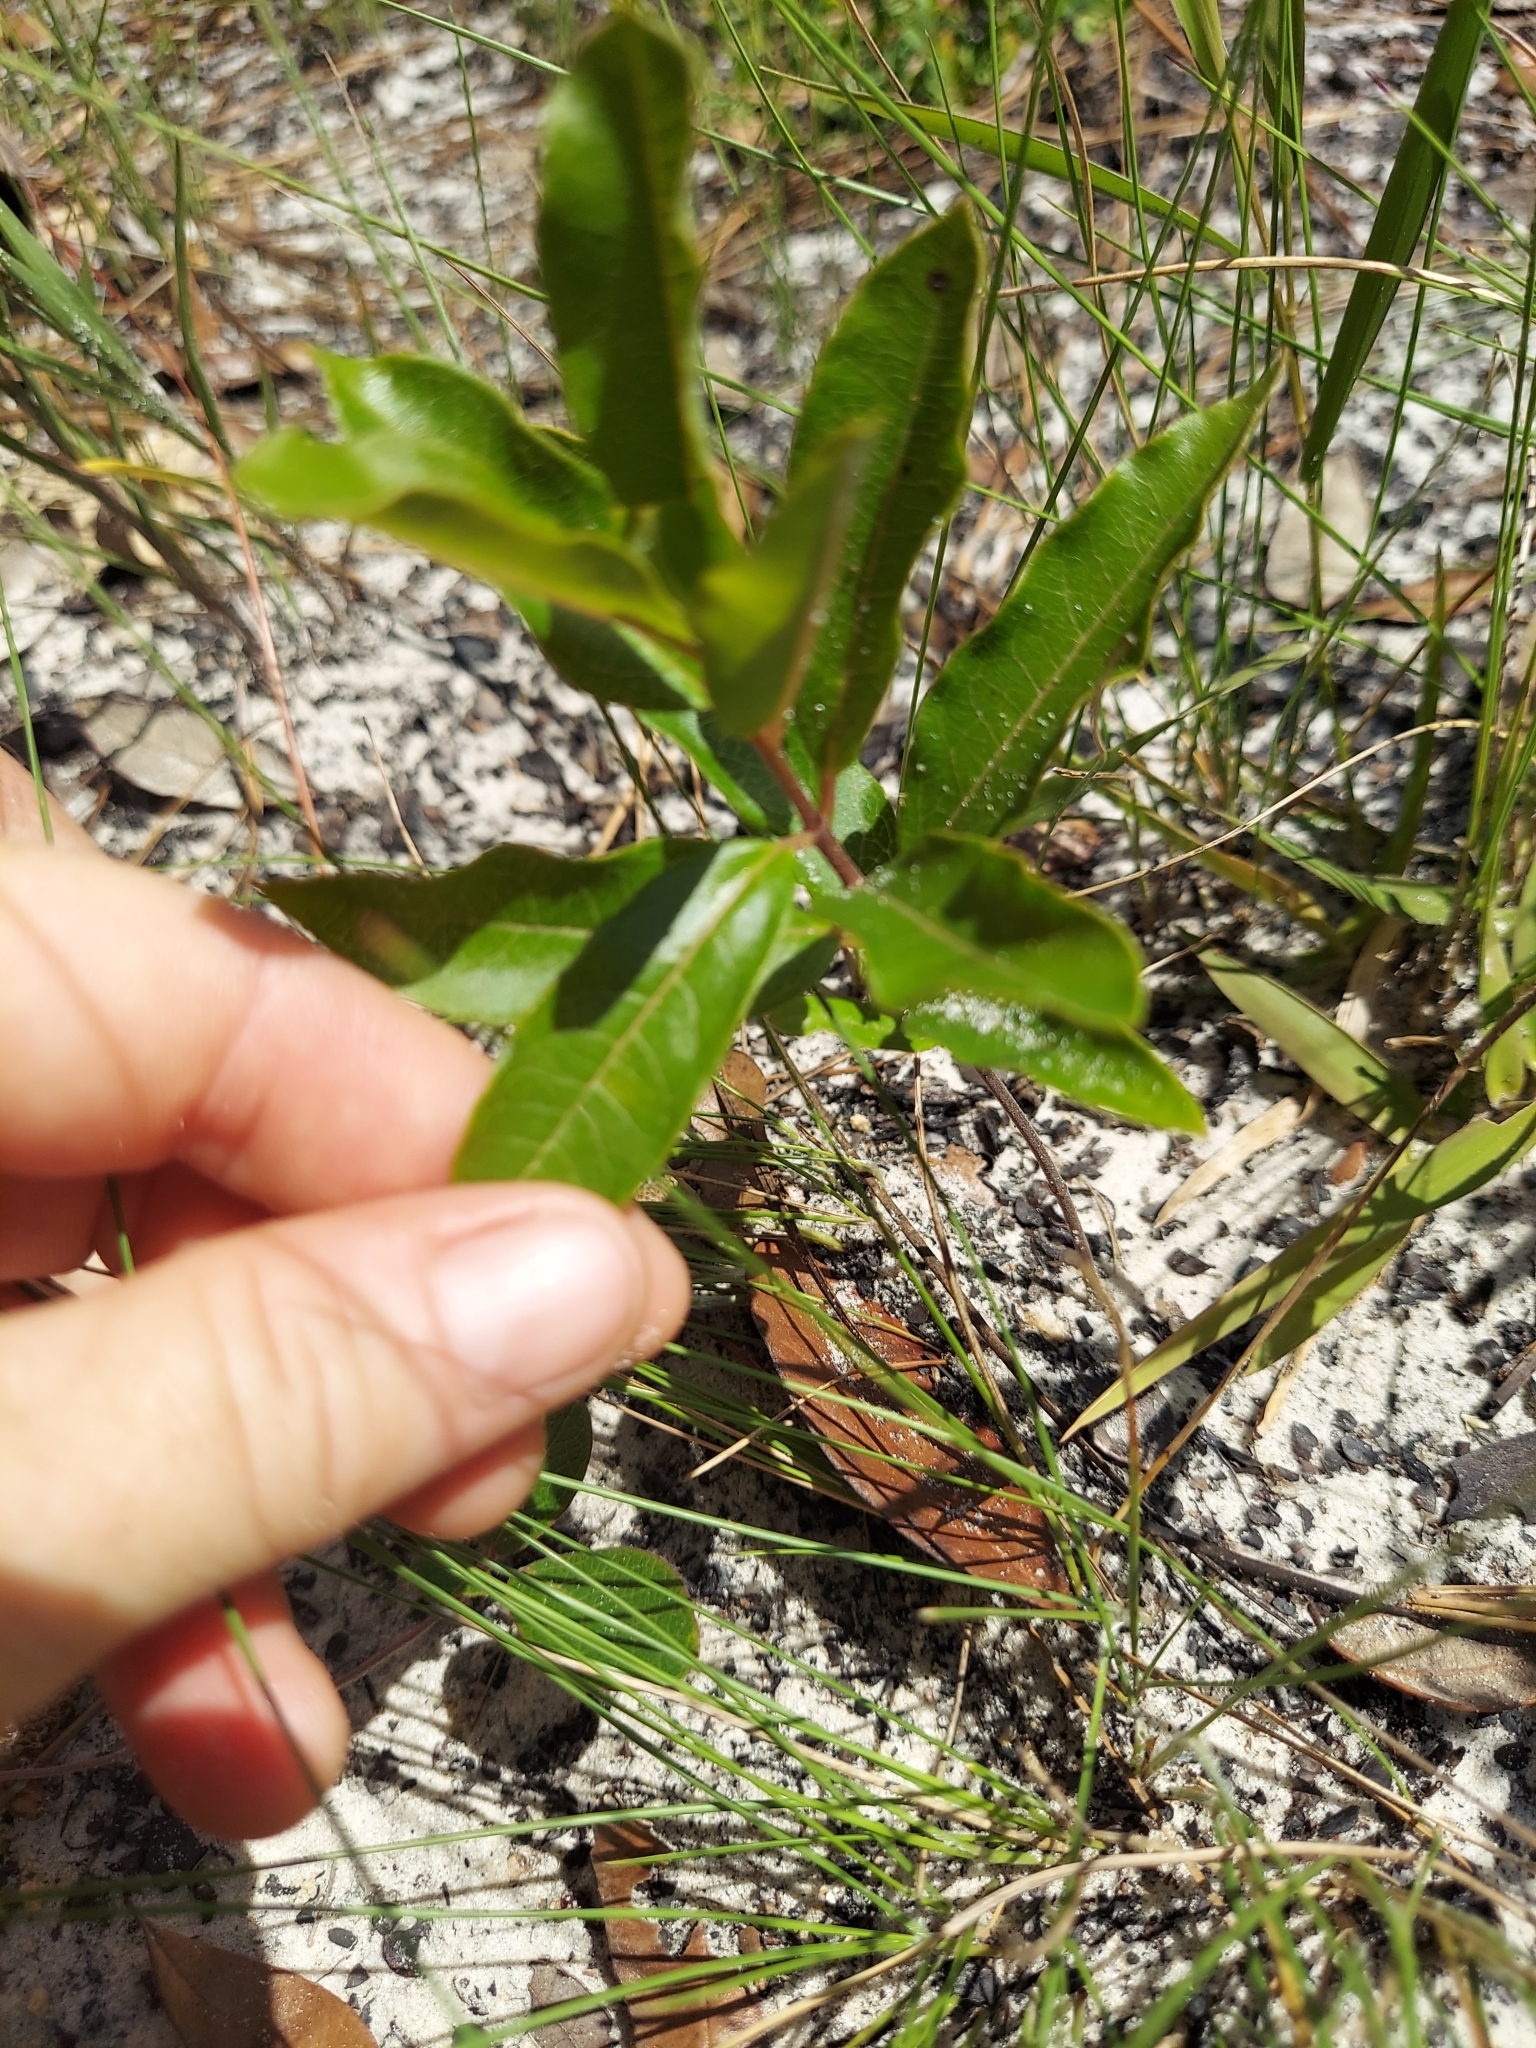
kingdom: Plantae
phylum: Tracheophyta
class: Magnoliopsida
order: Gentianales
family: Apocynaceae
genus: Asclepias
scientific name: Asclepias tomentosa
